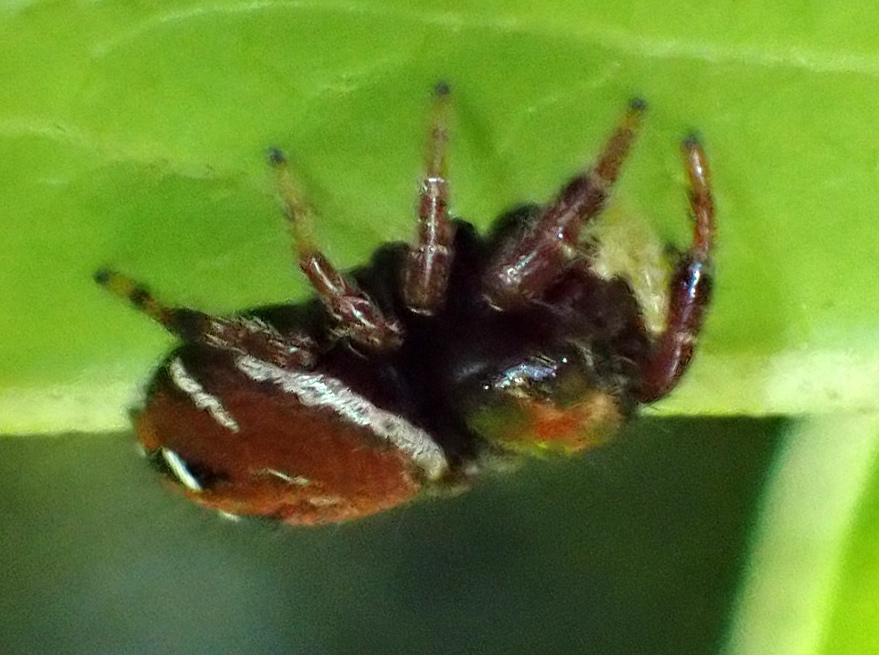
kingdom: Animalia
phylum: Arthropoda
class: Arachnida
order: Araneae
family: Salticidae
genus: Phidippus
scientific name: Phidippus whitmani
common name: Whitman's jumping spider
